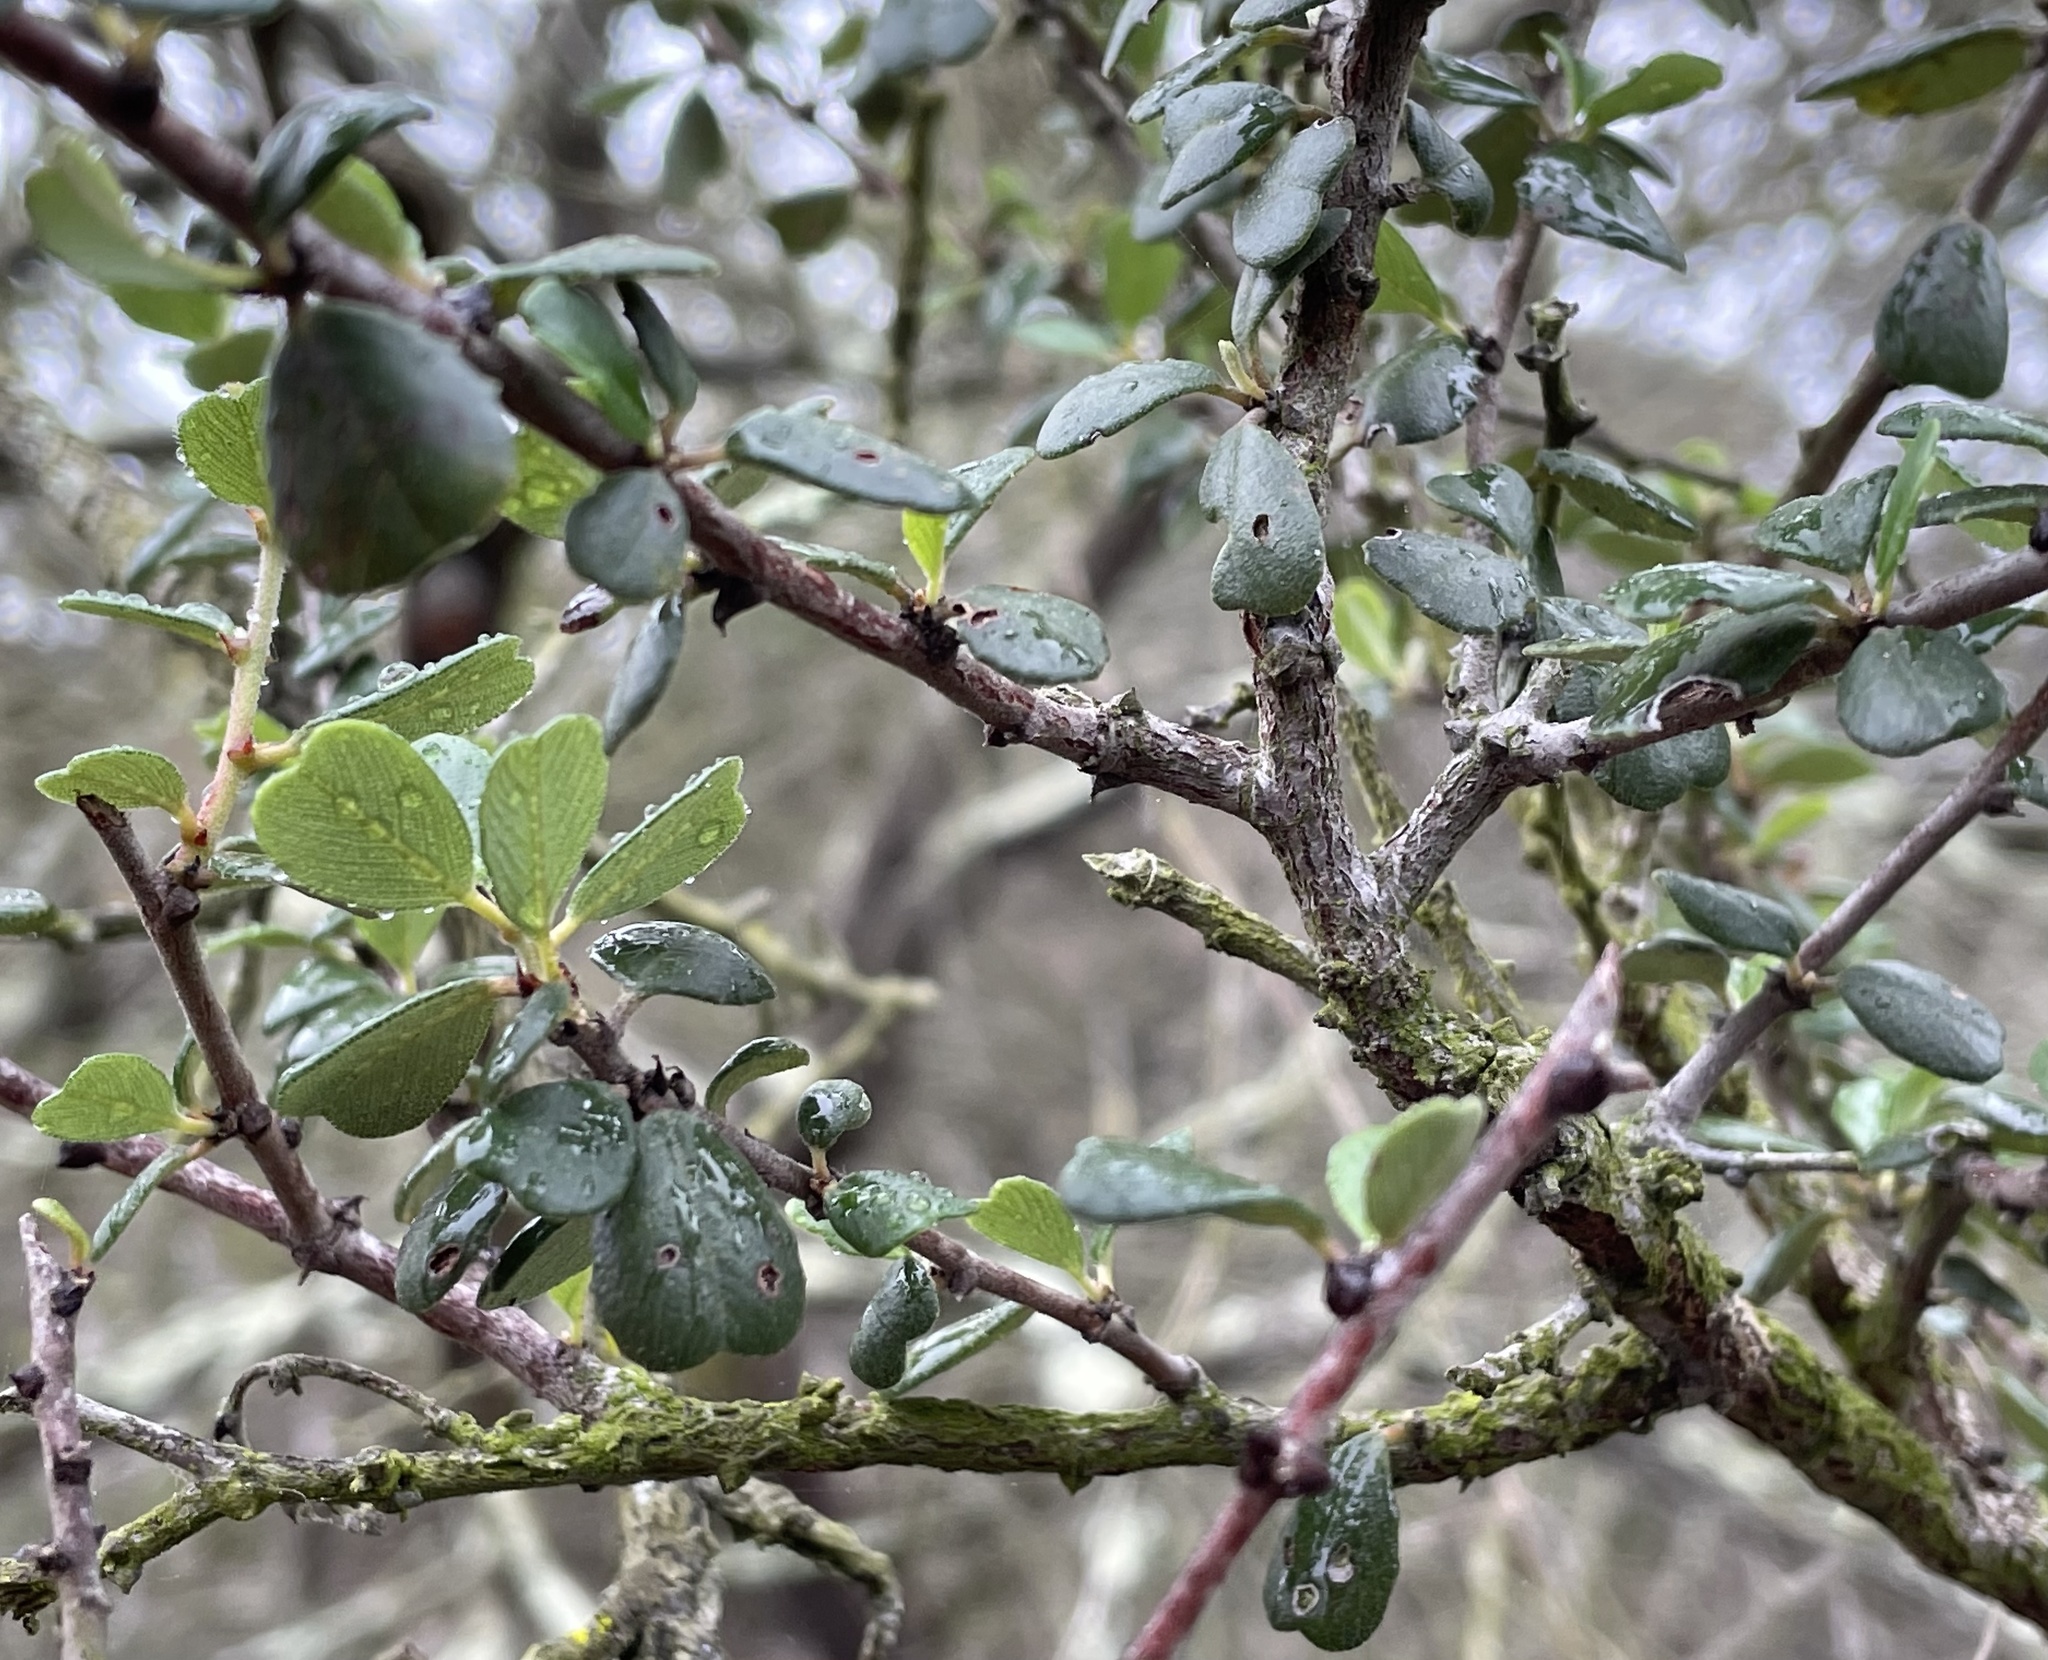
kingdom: Plantae
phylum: Tracheophyta
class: Magnoliopsida
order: Rosales
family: Rhamnaceae
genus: Ceanothus
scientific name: Ceanothus verrucosus
